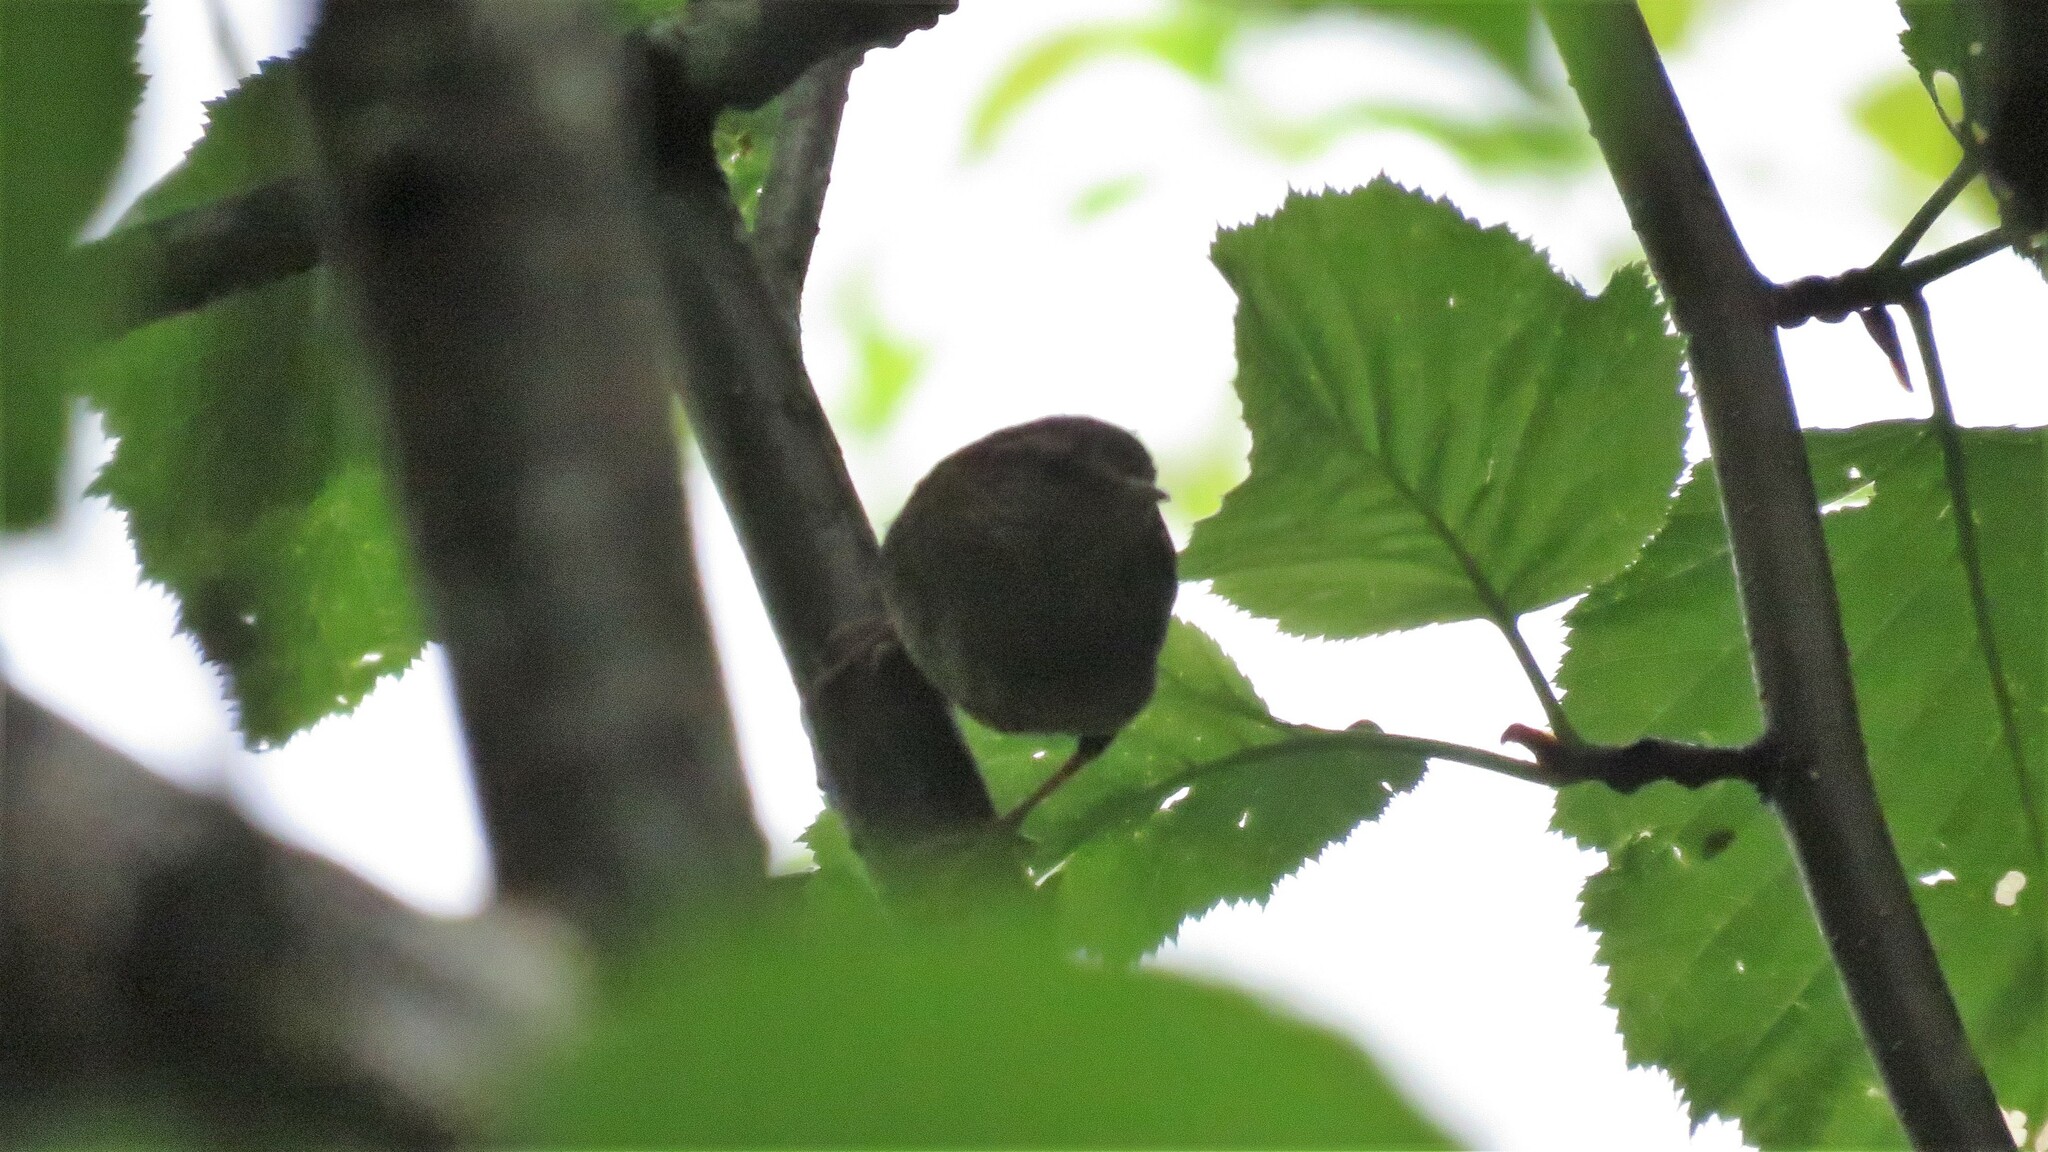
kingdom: Animalia
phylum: Chordata
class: Aves
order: Passeriformes
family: Troglodytidae
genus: Troglodytes
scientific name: Troglodytes pacificus
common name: Pacific wren
